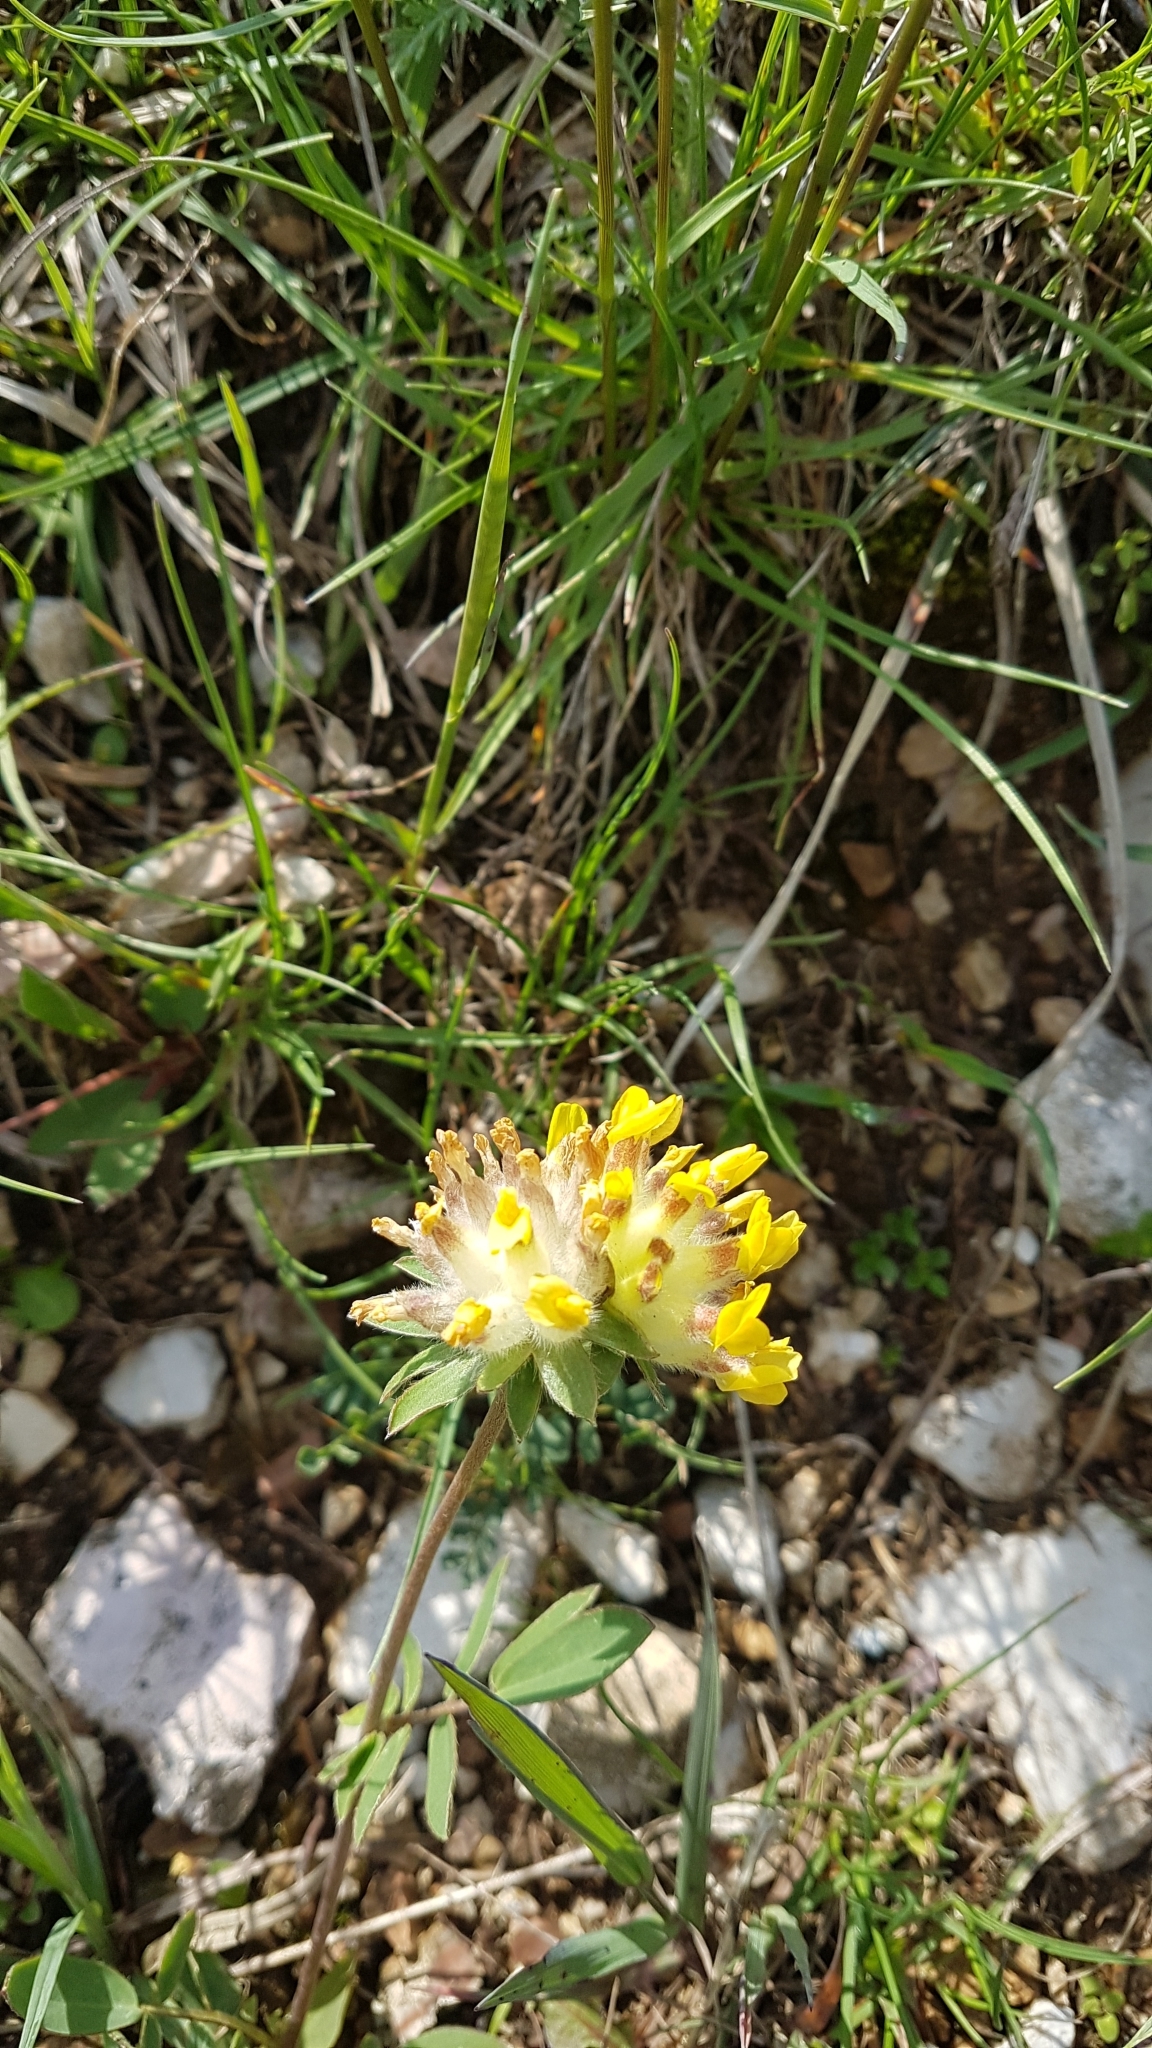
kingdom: Plantae
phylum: Tracheophyta
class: Magnoliopsida
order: Fabales
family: Fabaceae
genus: Anthyllis
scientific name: Anthyllis vulneraria
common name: Kidney vetch
